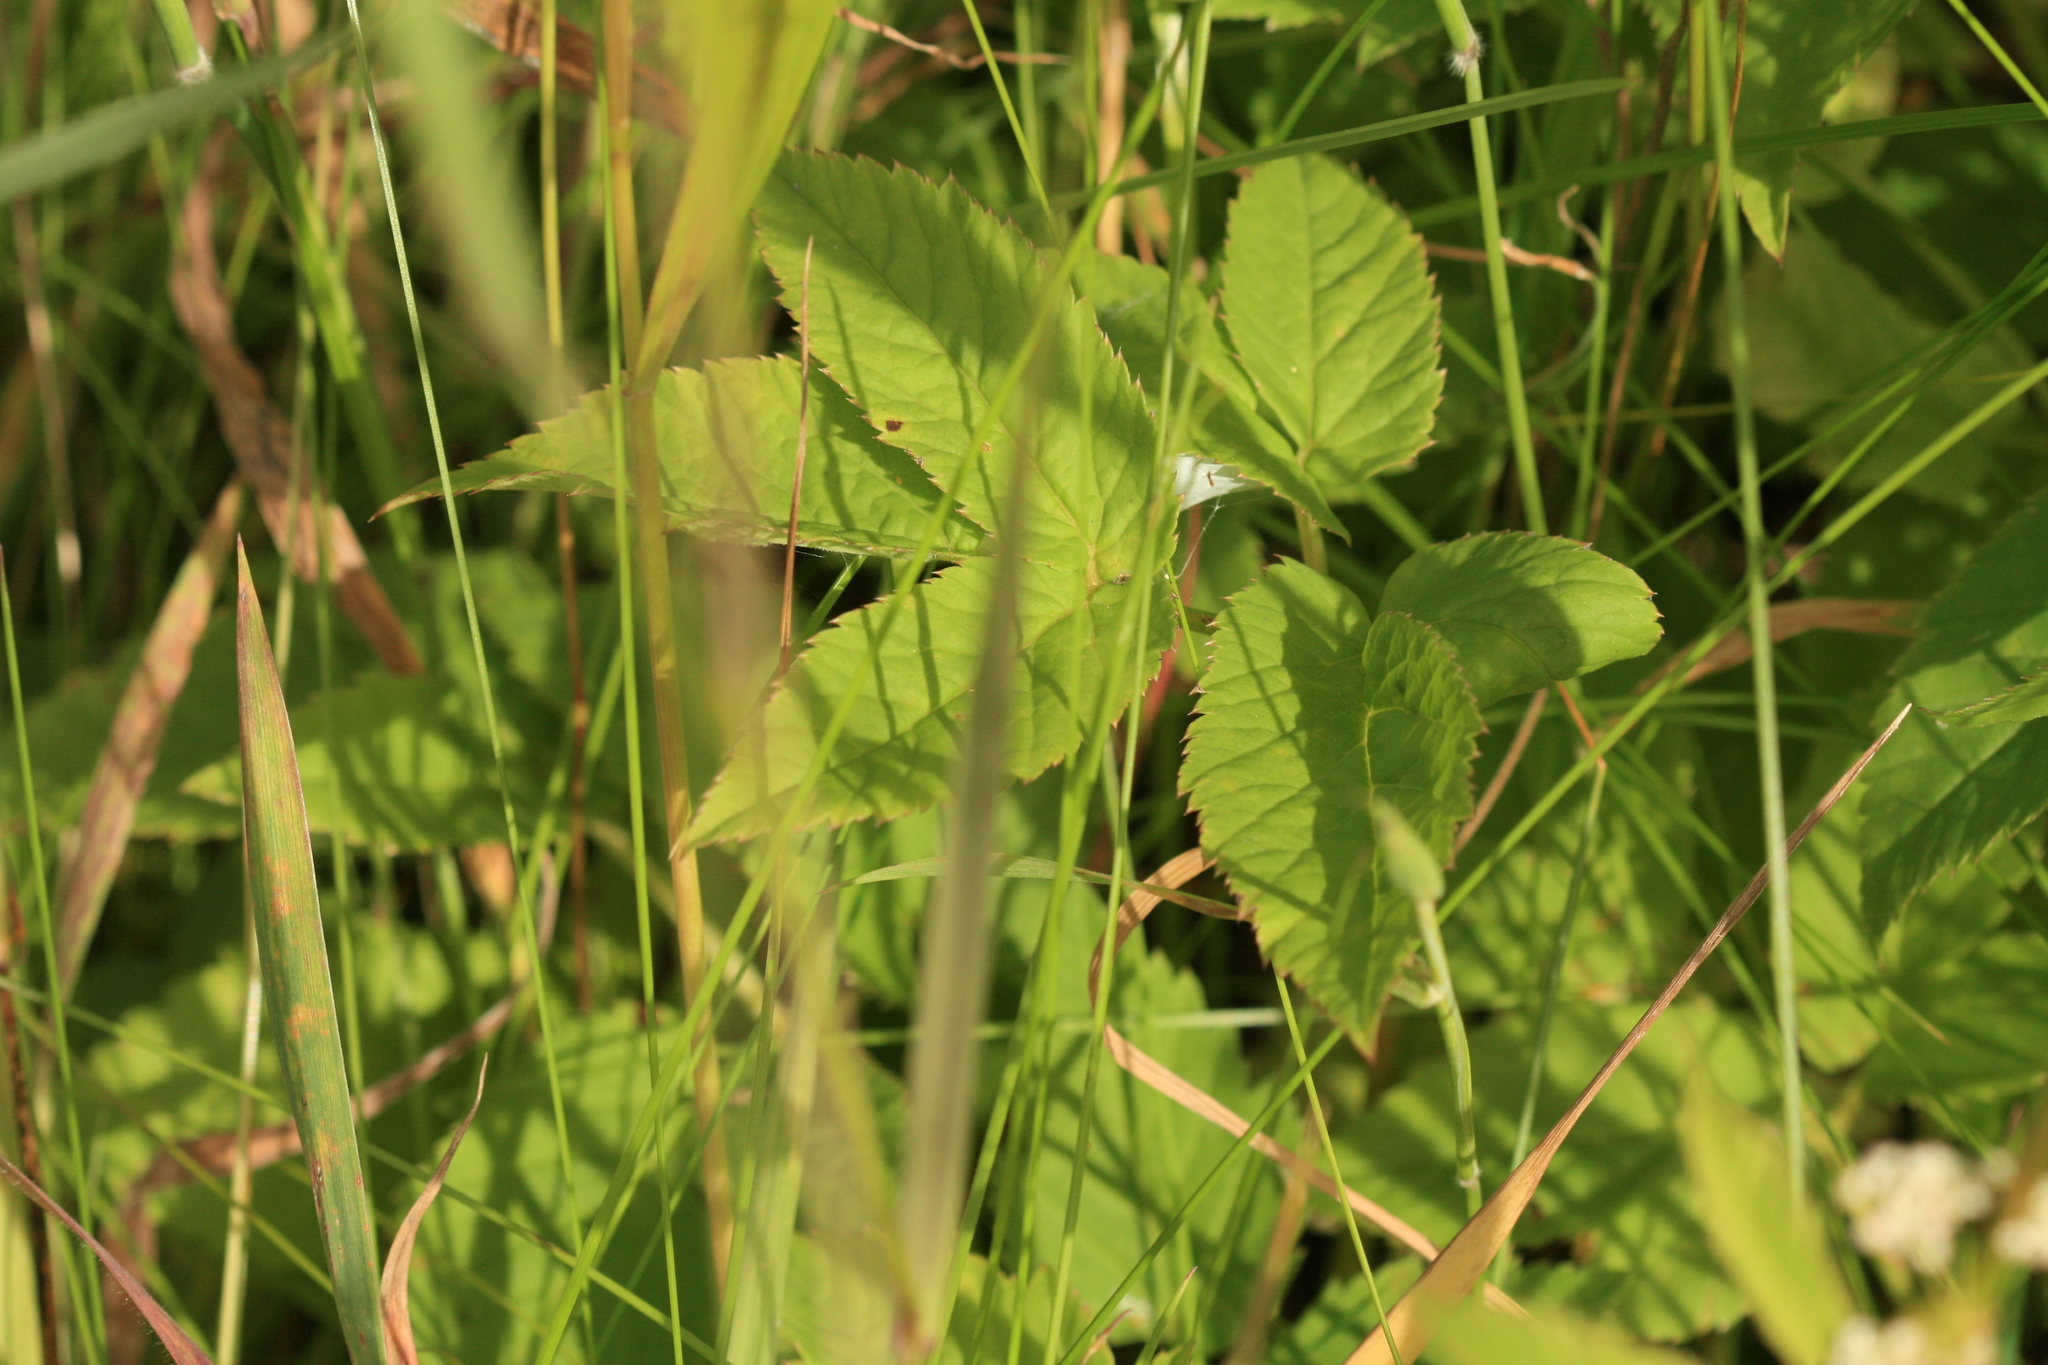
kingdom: Plantae
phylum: Tracheophyta
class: Magnoliopsida
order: Apiales
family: Apiaceae
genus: Aegopodium
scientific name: Aegopodium podagraria
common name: Ground-elder
